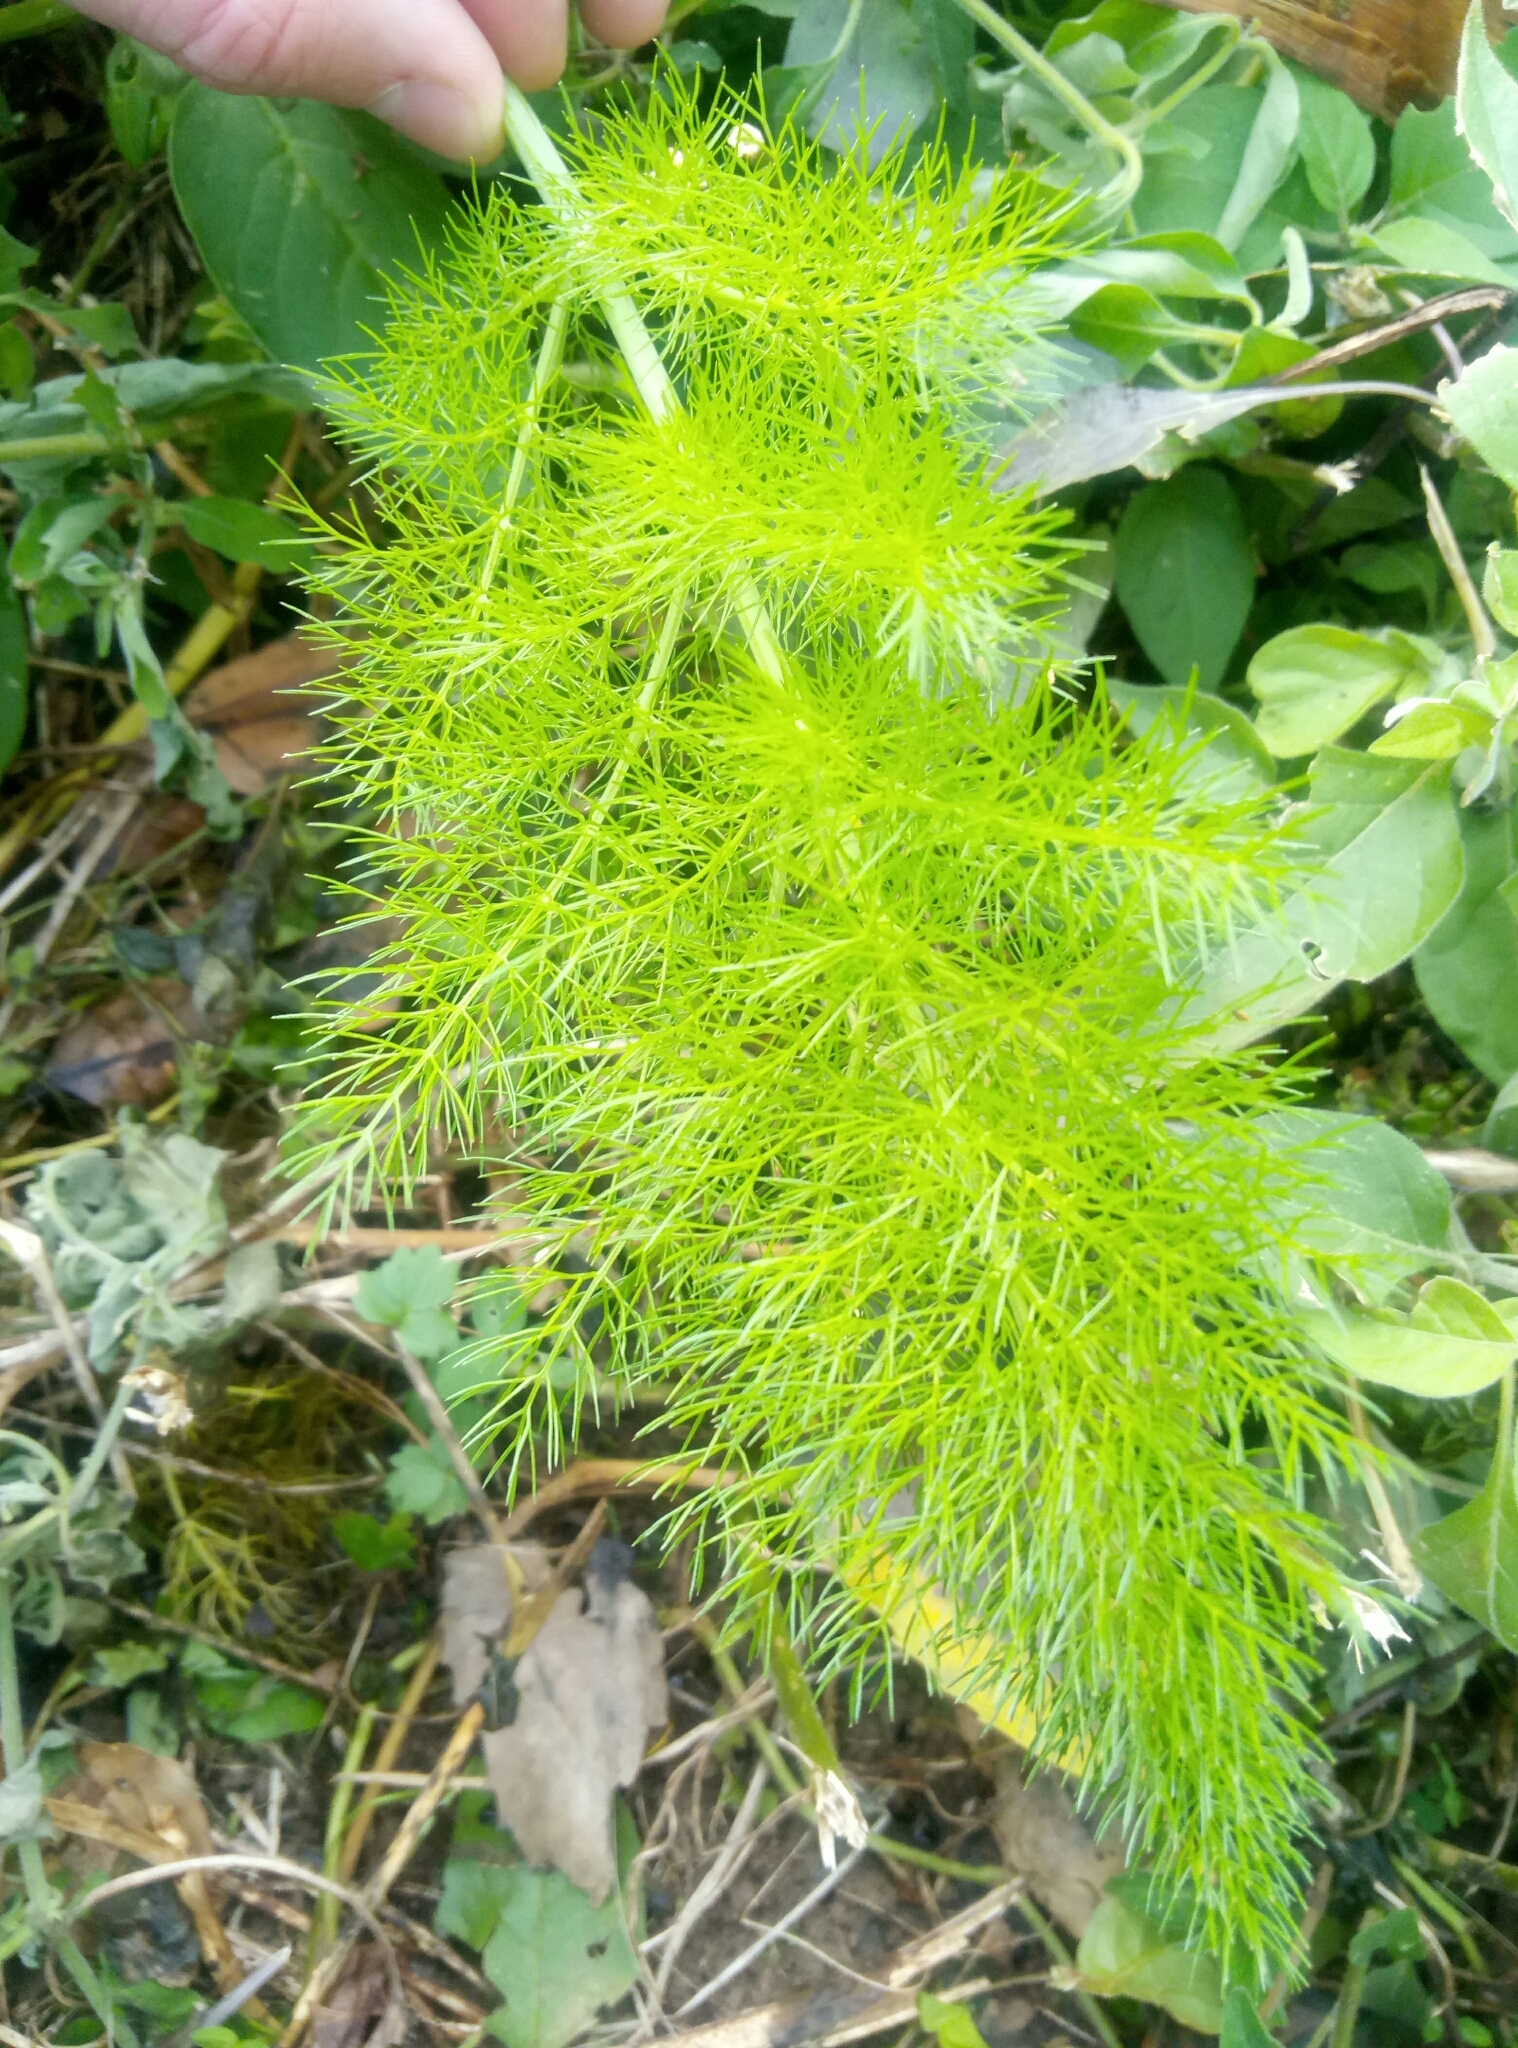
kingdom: Plantae
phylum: Tracheophyta
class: Magnoliopsida
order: Apiales
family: Apiaceae
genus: Foeniculum
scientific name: Foeniculum vulgare
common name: Fennel
